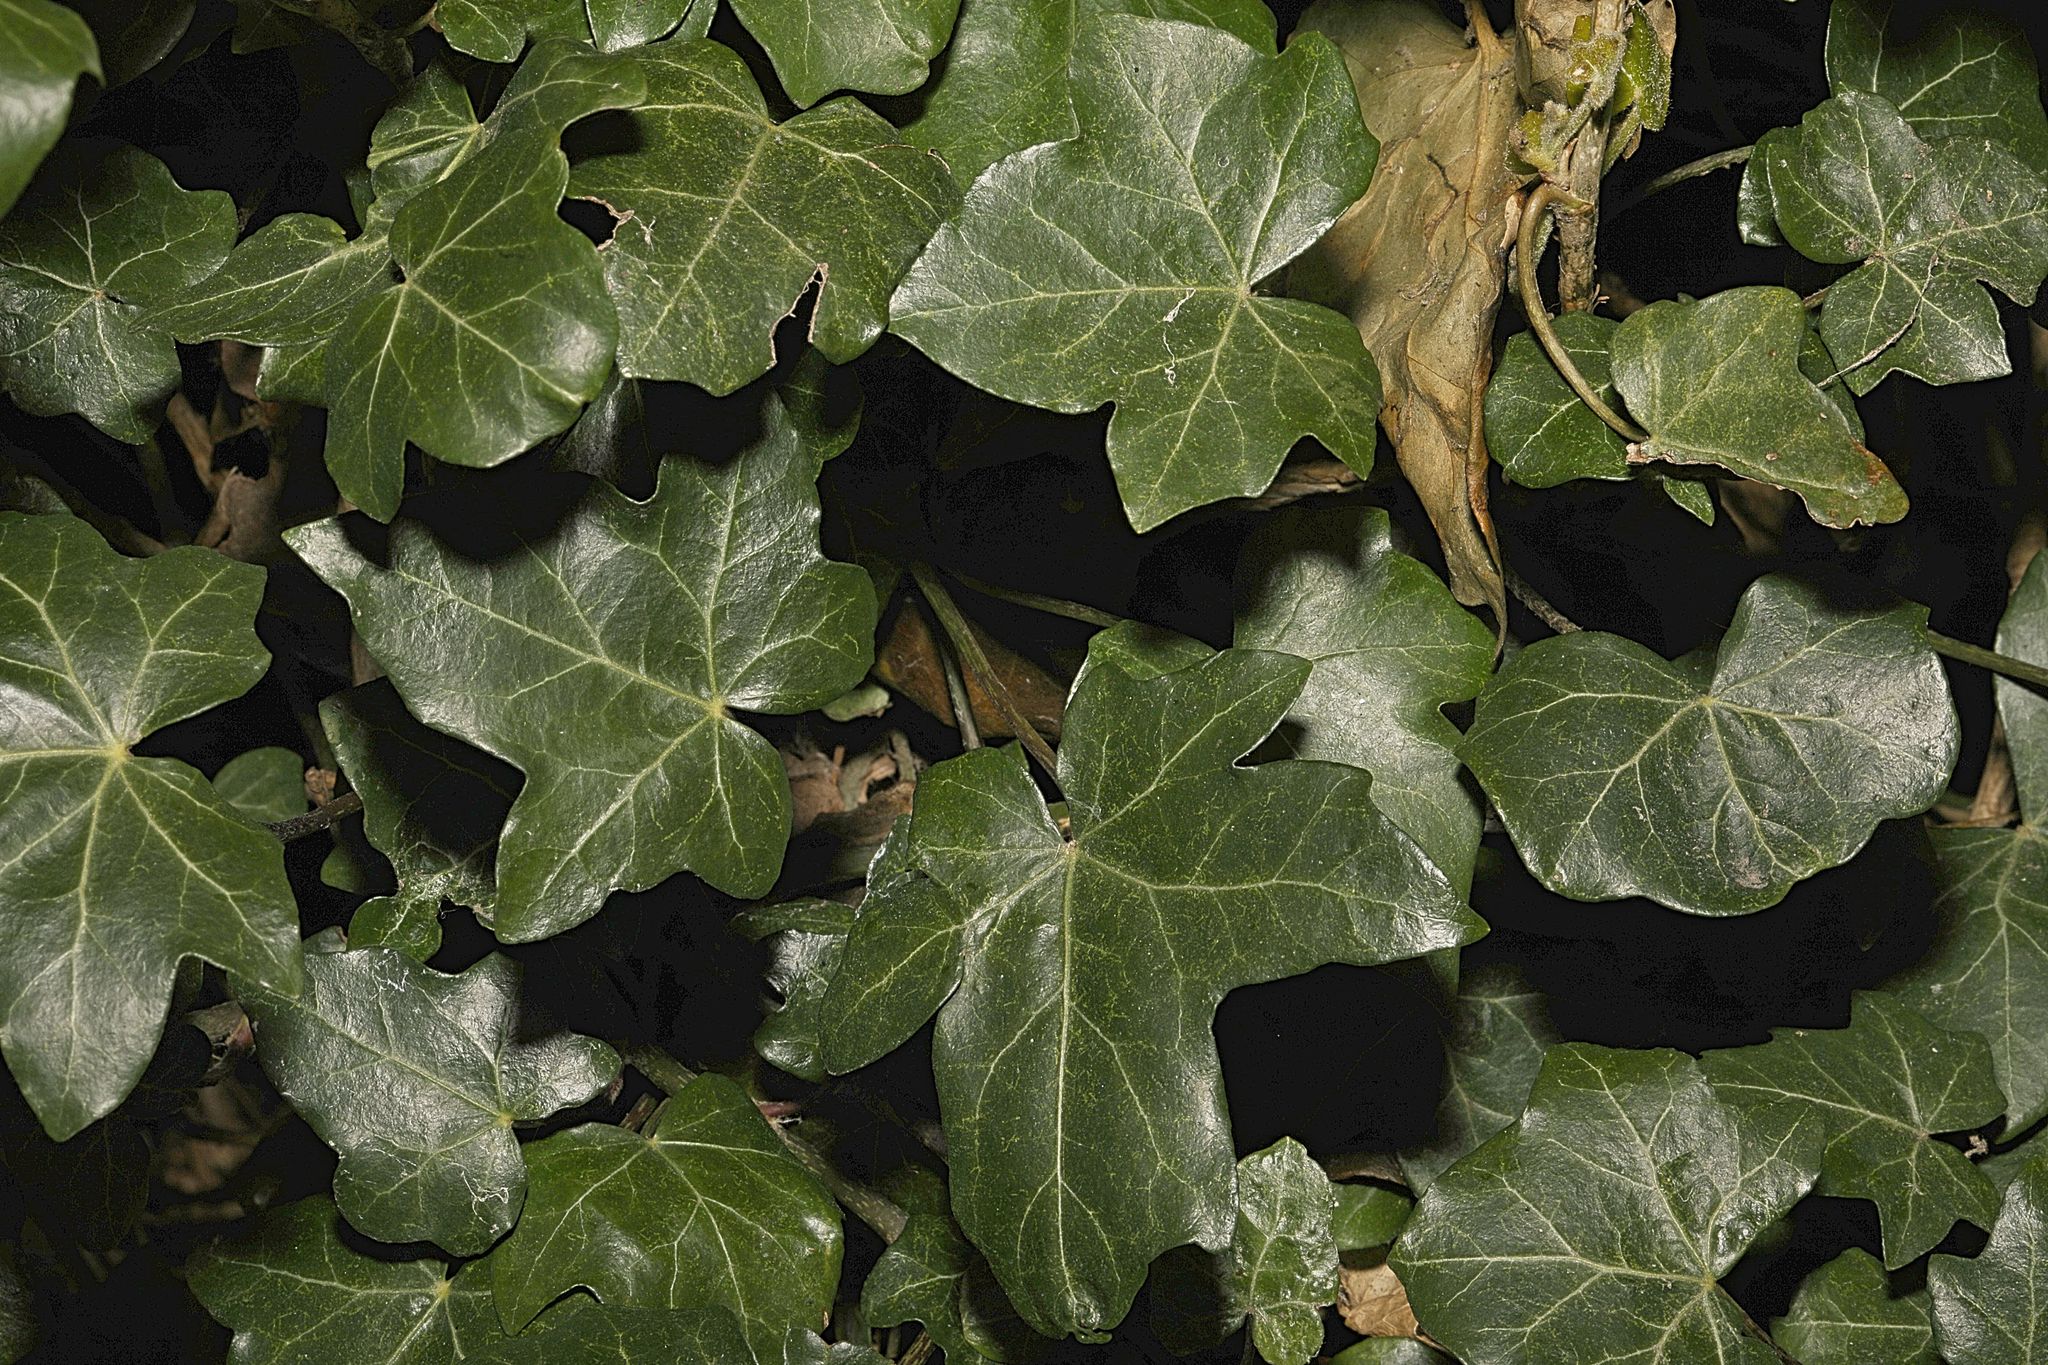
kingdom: Plantae
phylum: Tracheophyta
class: Magnoliopsida
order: Apiales
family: Araliaceae
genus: Hedera
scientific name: Hedera helix
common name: Ivy
